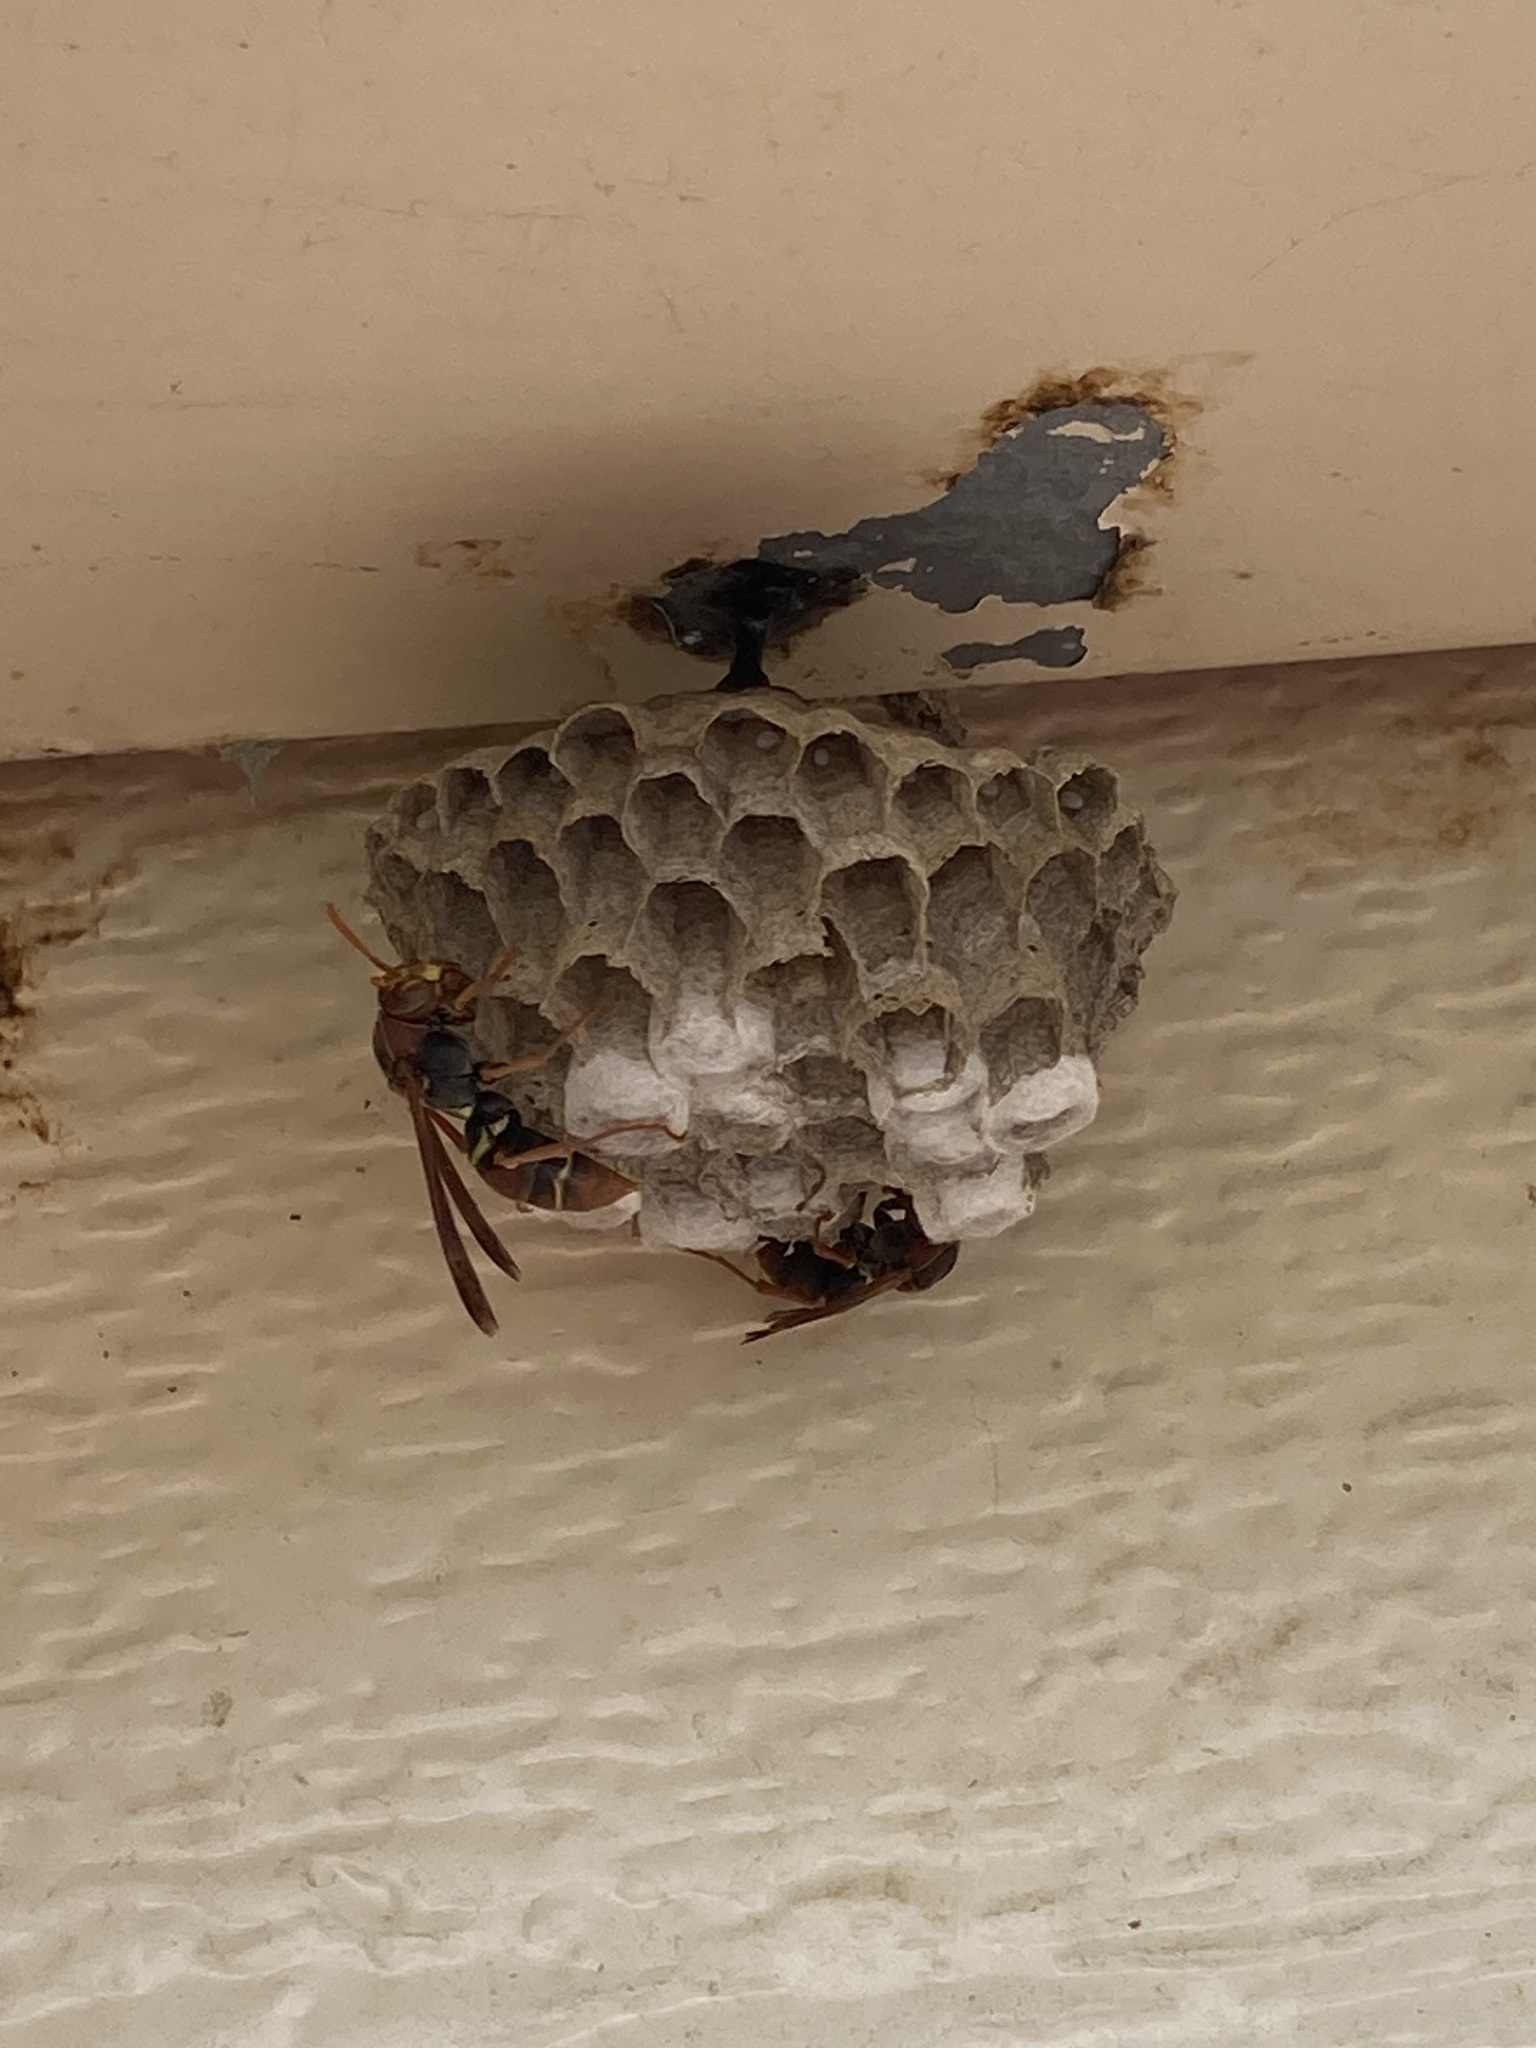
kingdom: Animalia
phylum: Arthropoda
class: Insecta
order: Hymenoptera
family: Eumenidae
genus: Polistes
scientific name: Polistes humilis
